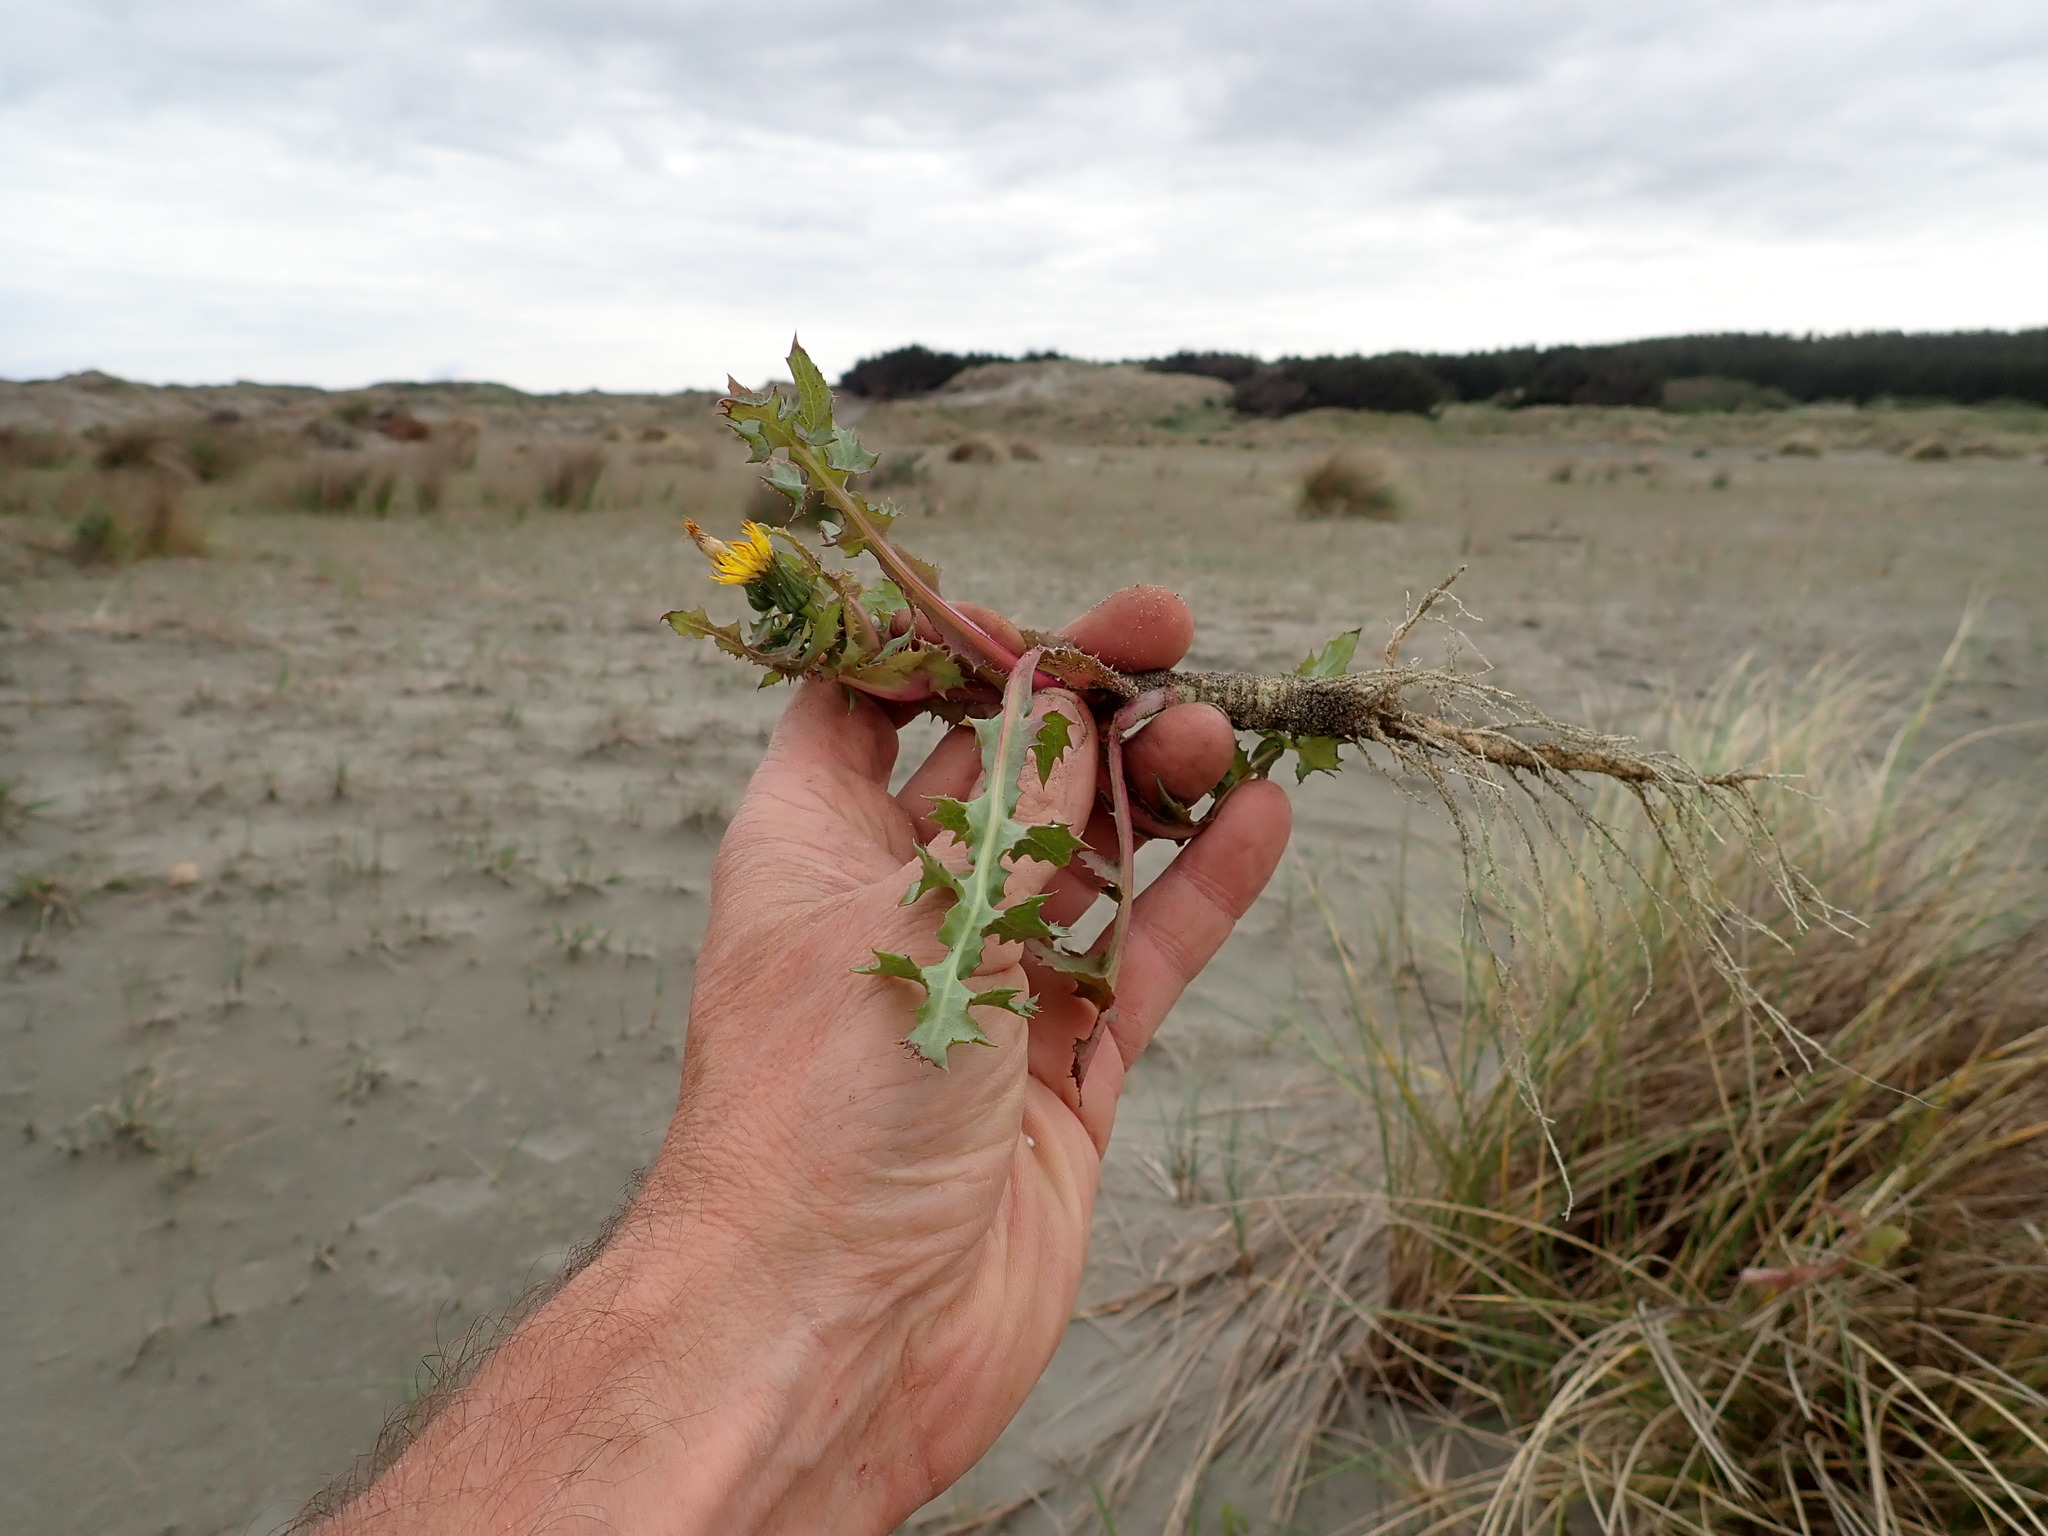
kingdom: Plantae
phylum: Tracheophyta
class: Magnoliopsida
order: Asterales
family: Asteraceae
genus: Sonchus
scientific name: Sonchus oleraceus
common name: Common sowthistle
